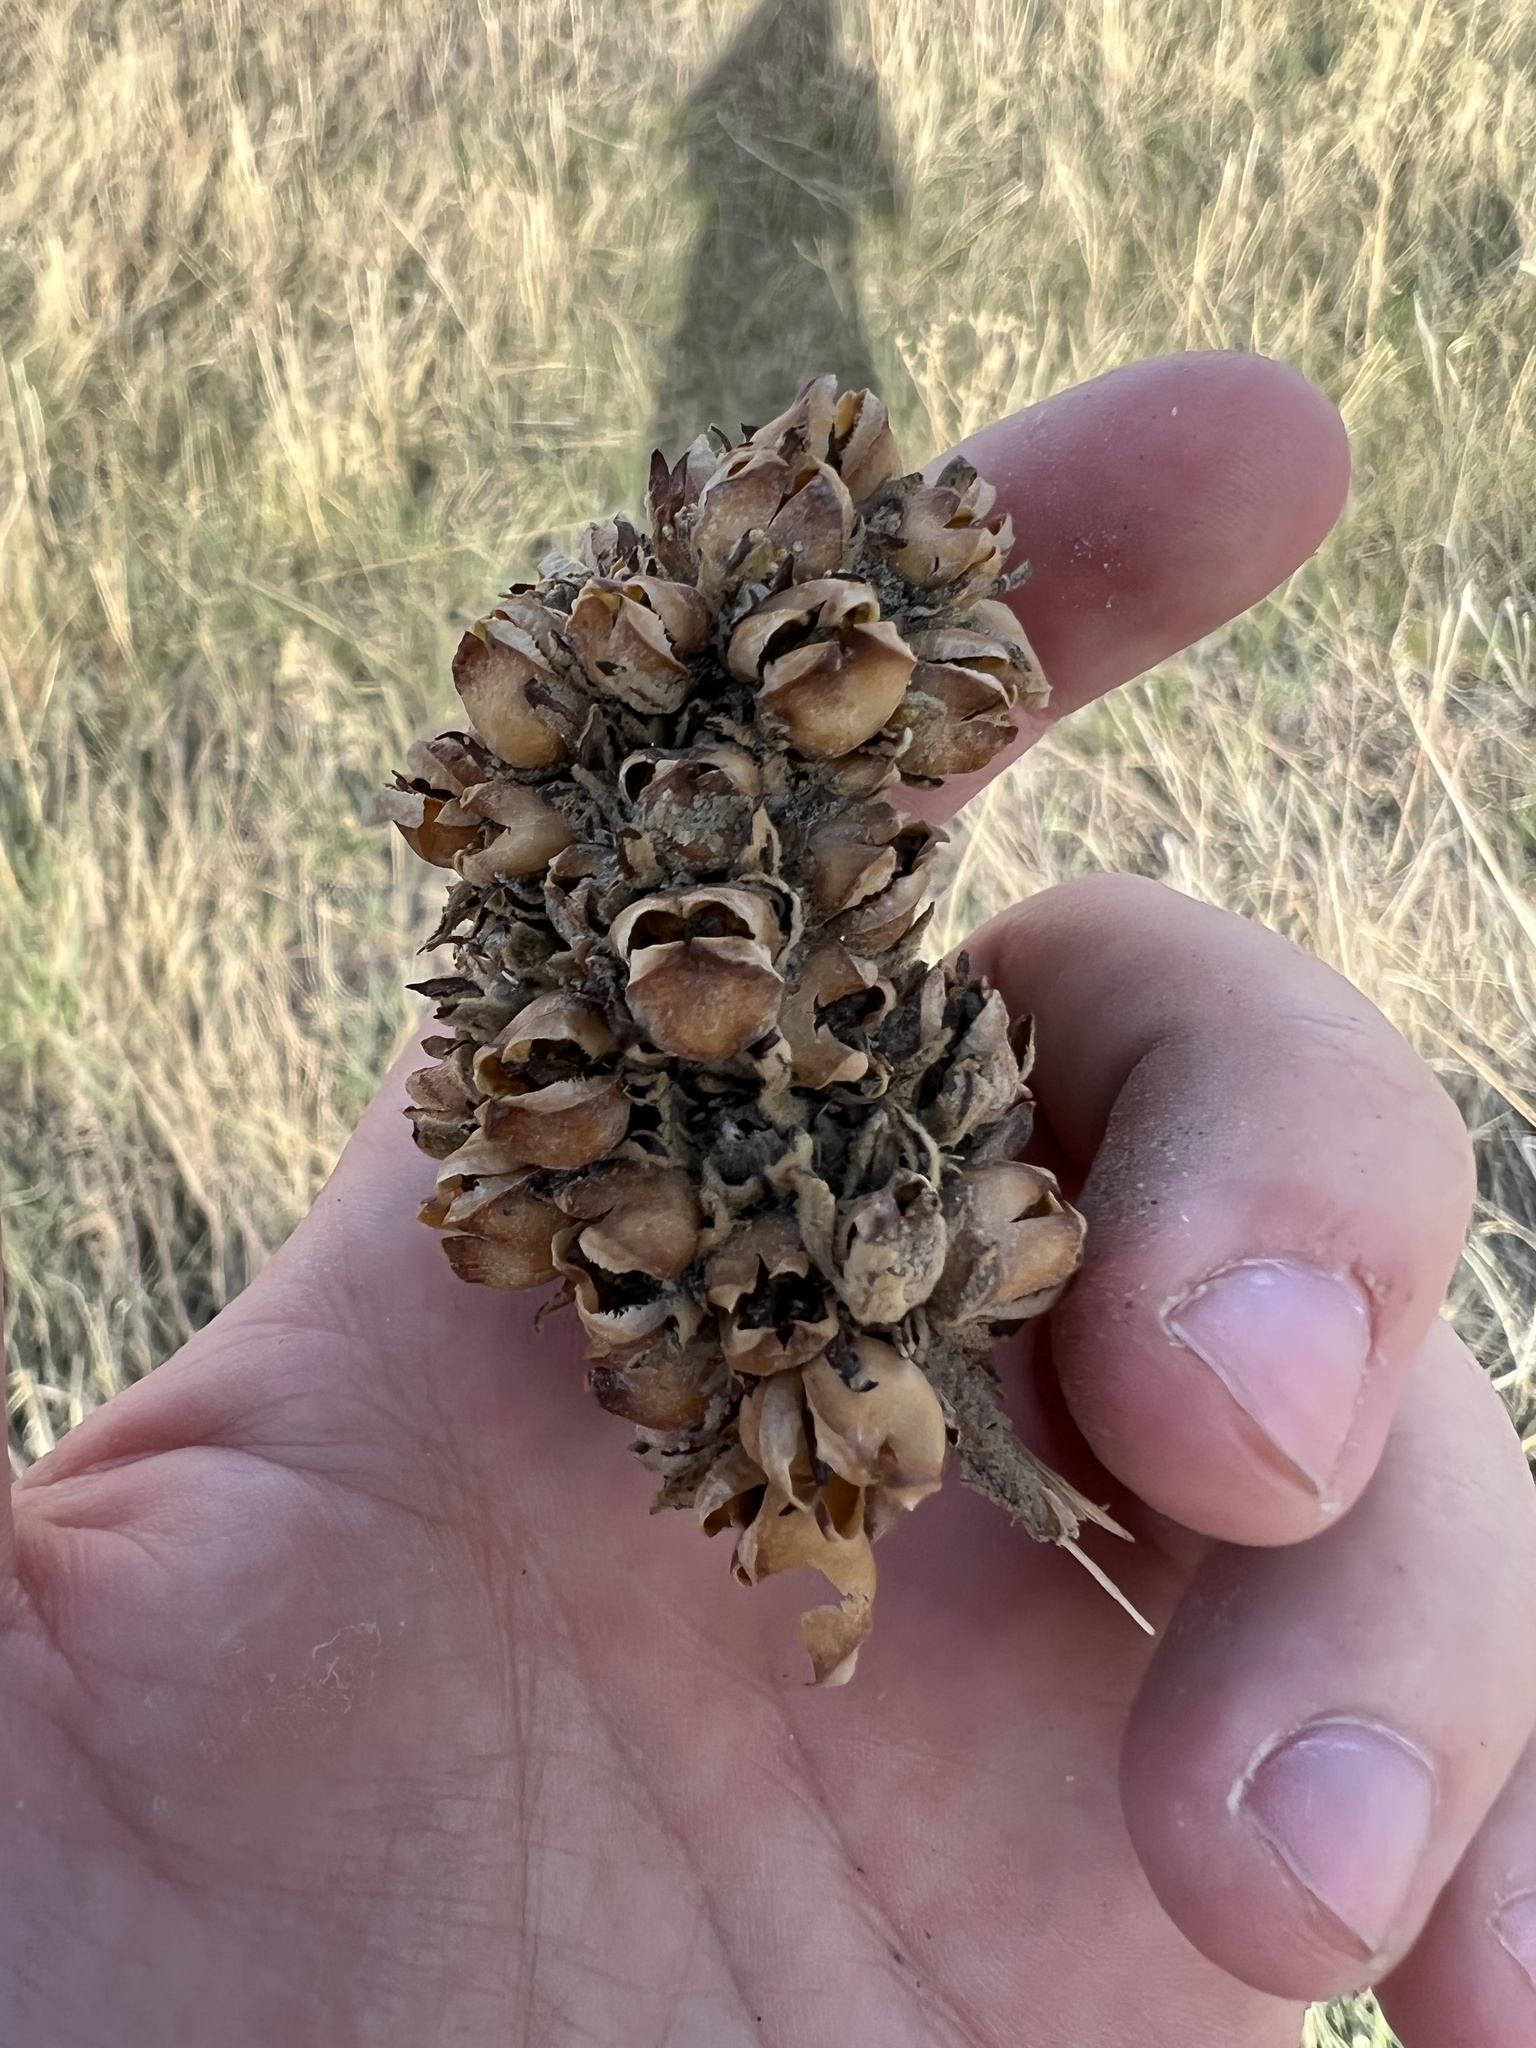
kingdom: Plantae
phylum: Tracheophyta
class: Magnoliopsida
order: Lamiales
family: Scrophulariaceae
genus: Verbascum
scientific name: Verbascum thapsus
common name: Common mullein
